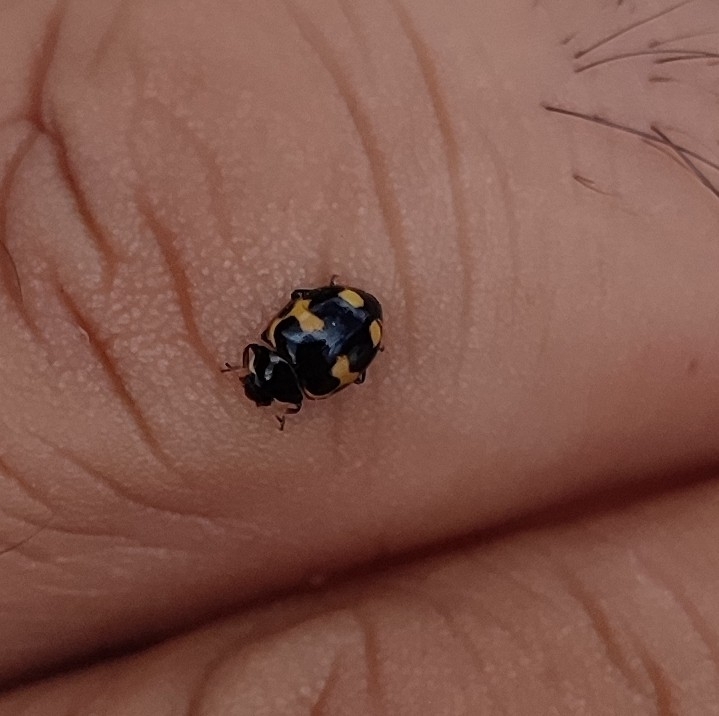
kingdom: Animalia
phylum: Arthropoda
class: Insecta
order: Coleoptera
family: Coccinellidae
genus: Ceratomegilla
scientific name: Ceratomegilla alpina
